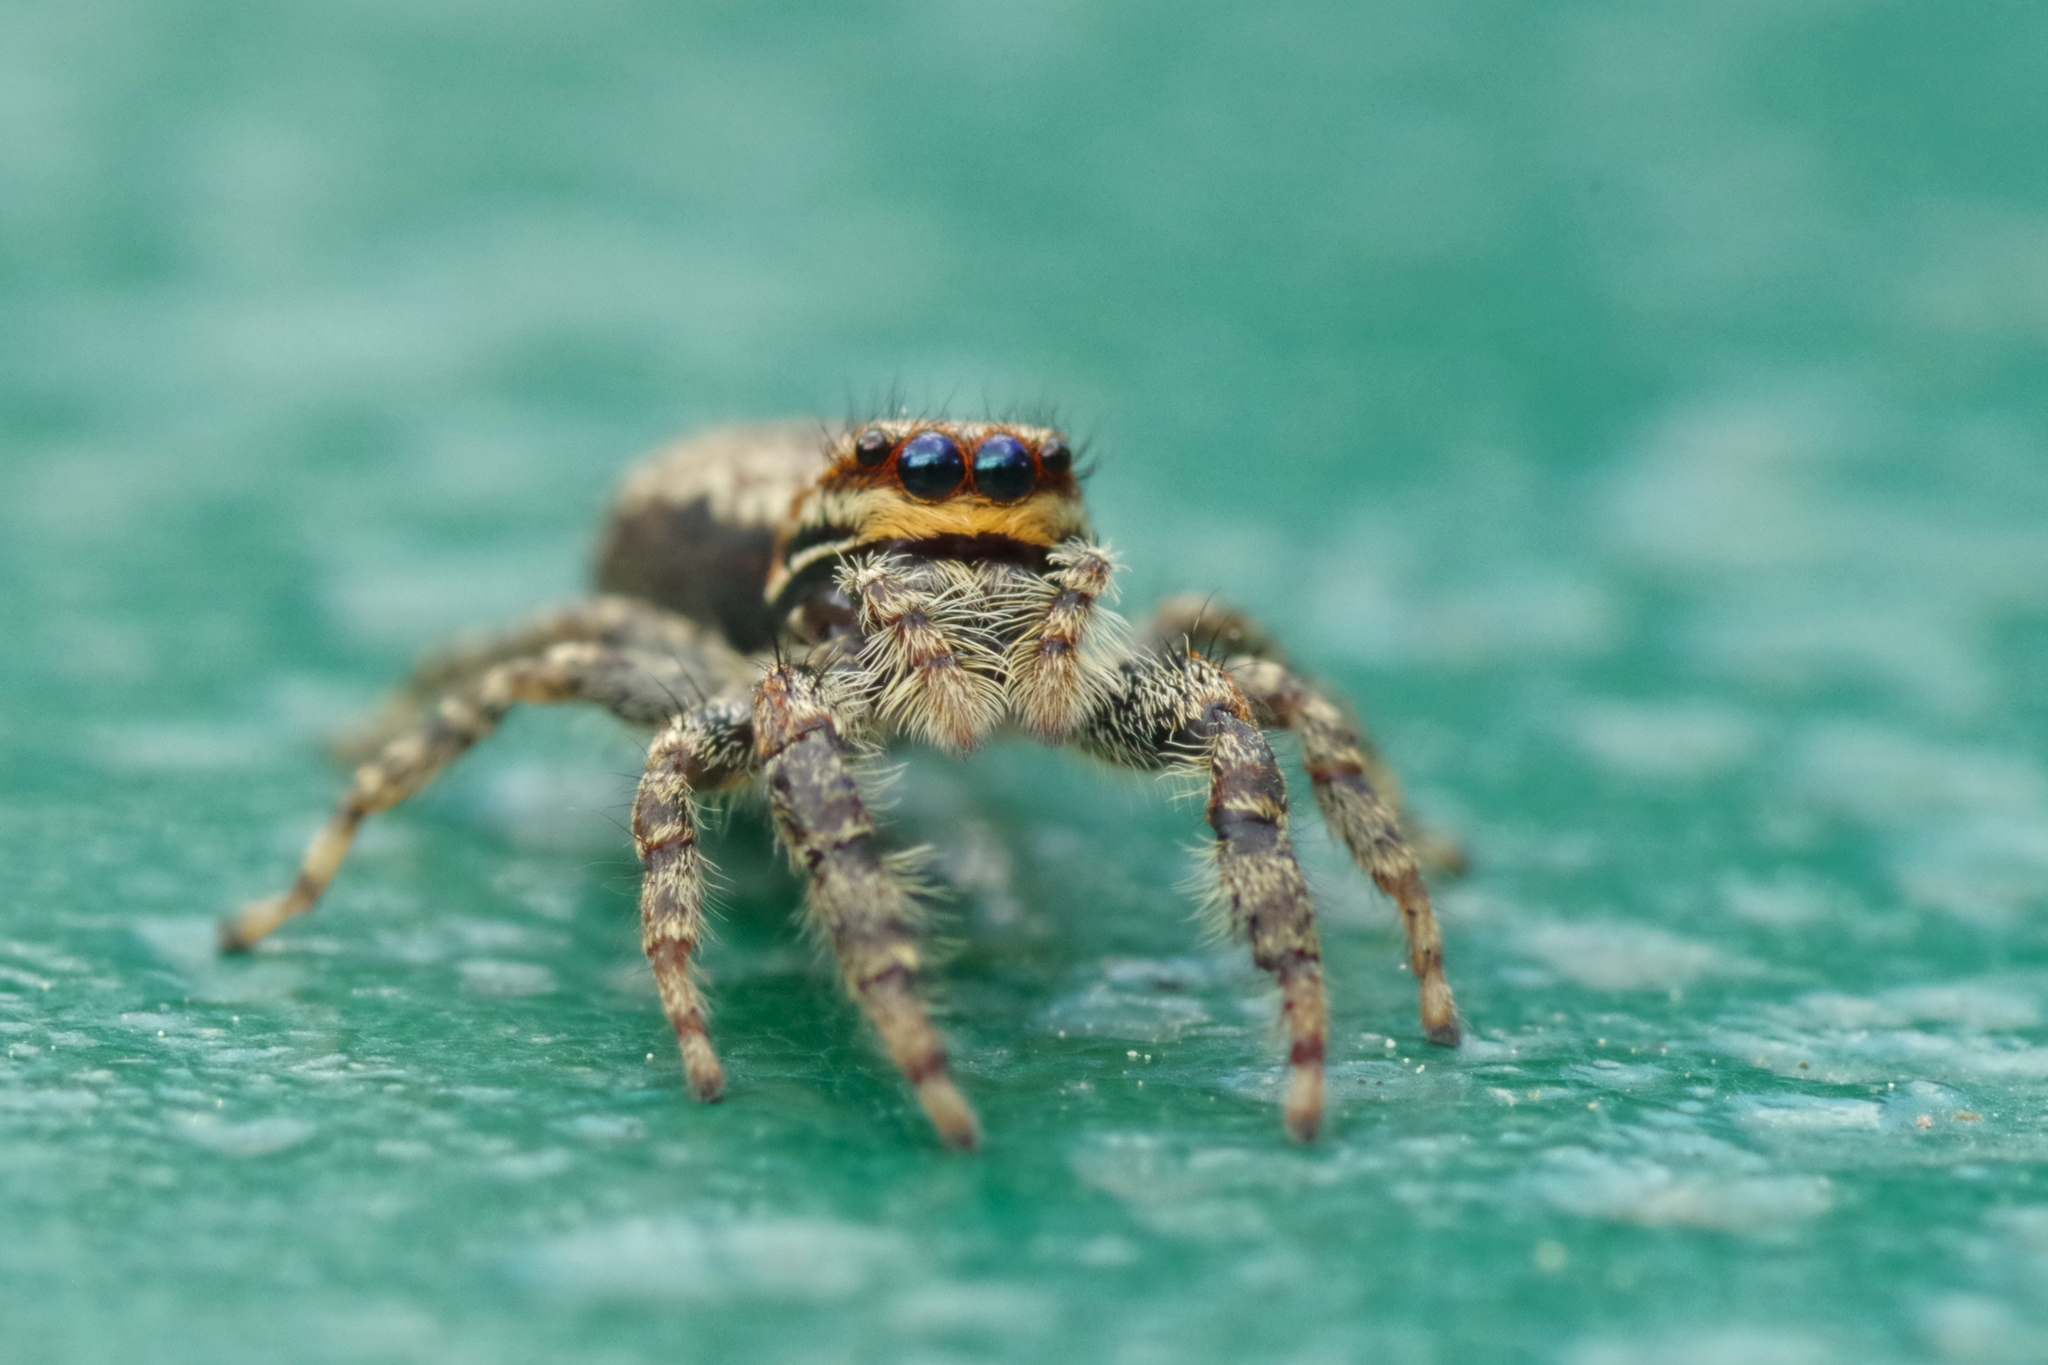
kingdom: Animalia
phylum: Arthropoda
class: Arachnida
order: Araneae
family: Salticidae
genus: Marpissa
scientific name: Marpissa muscosa
